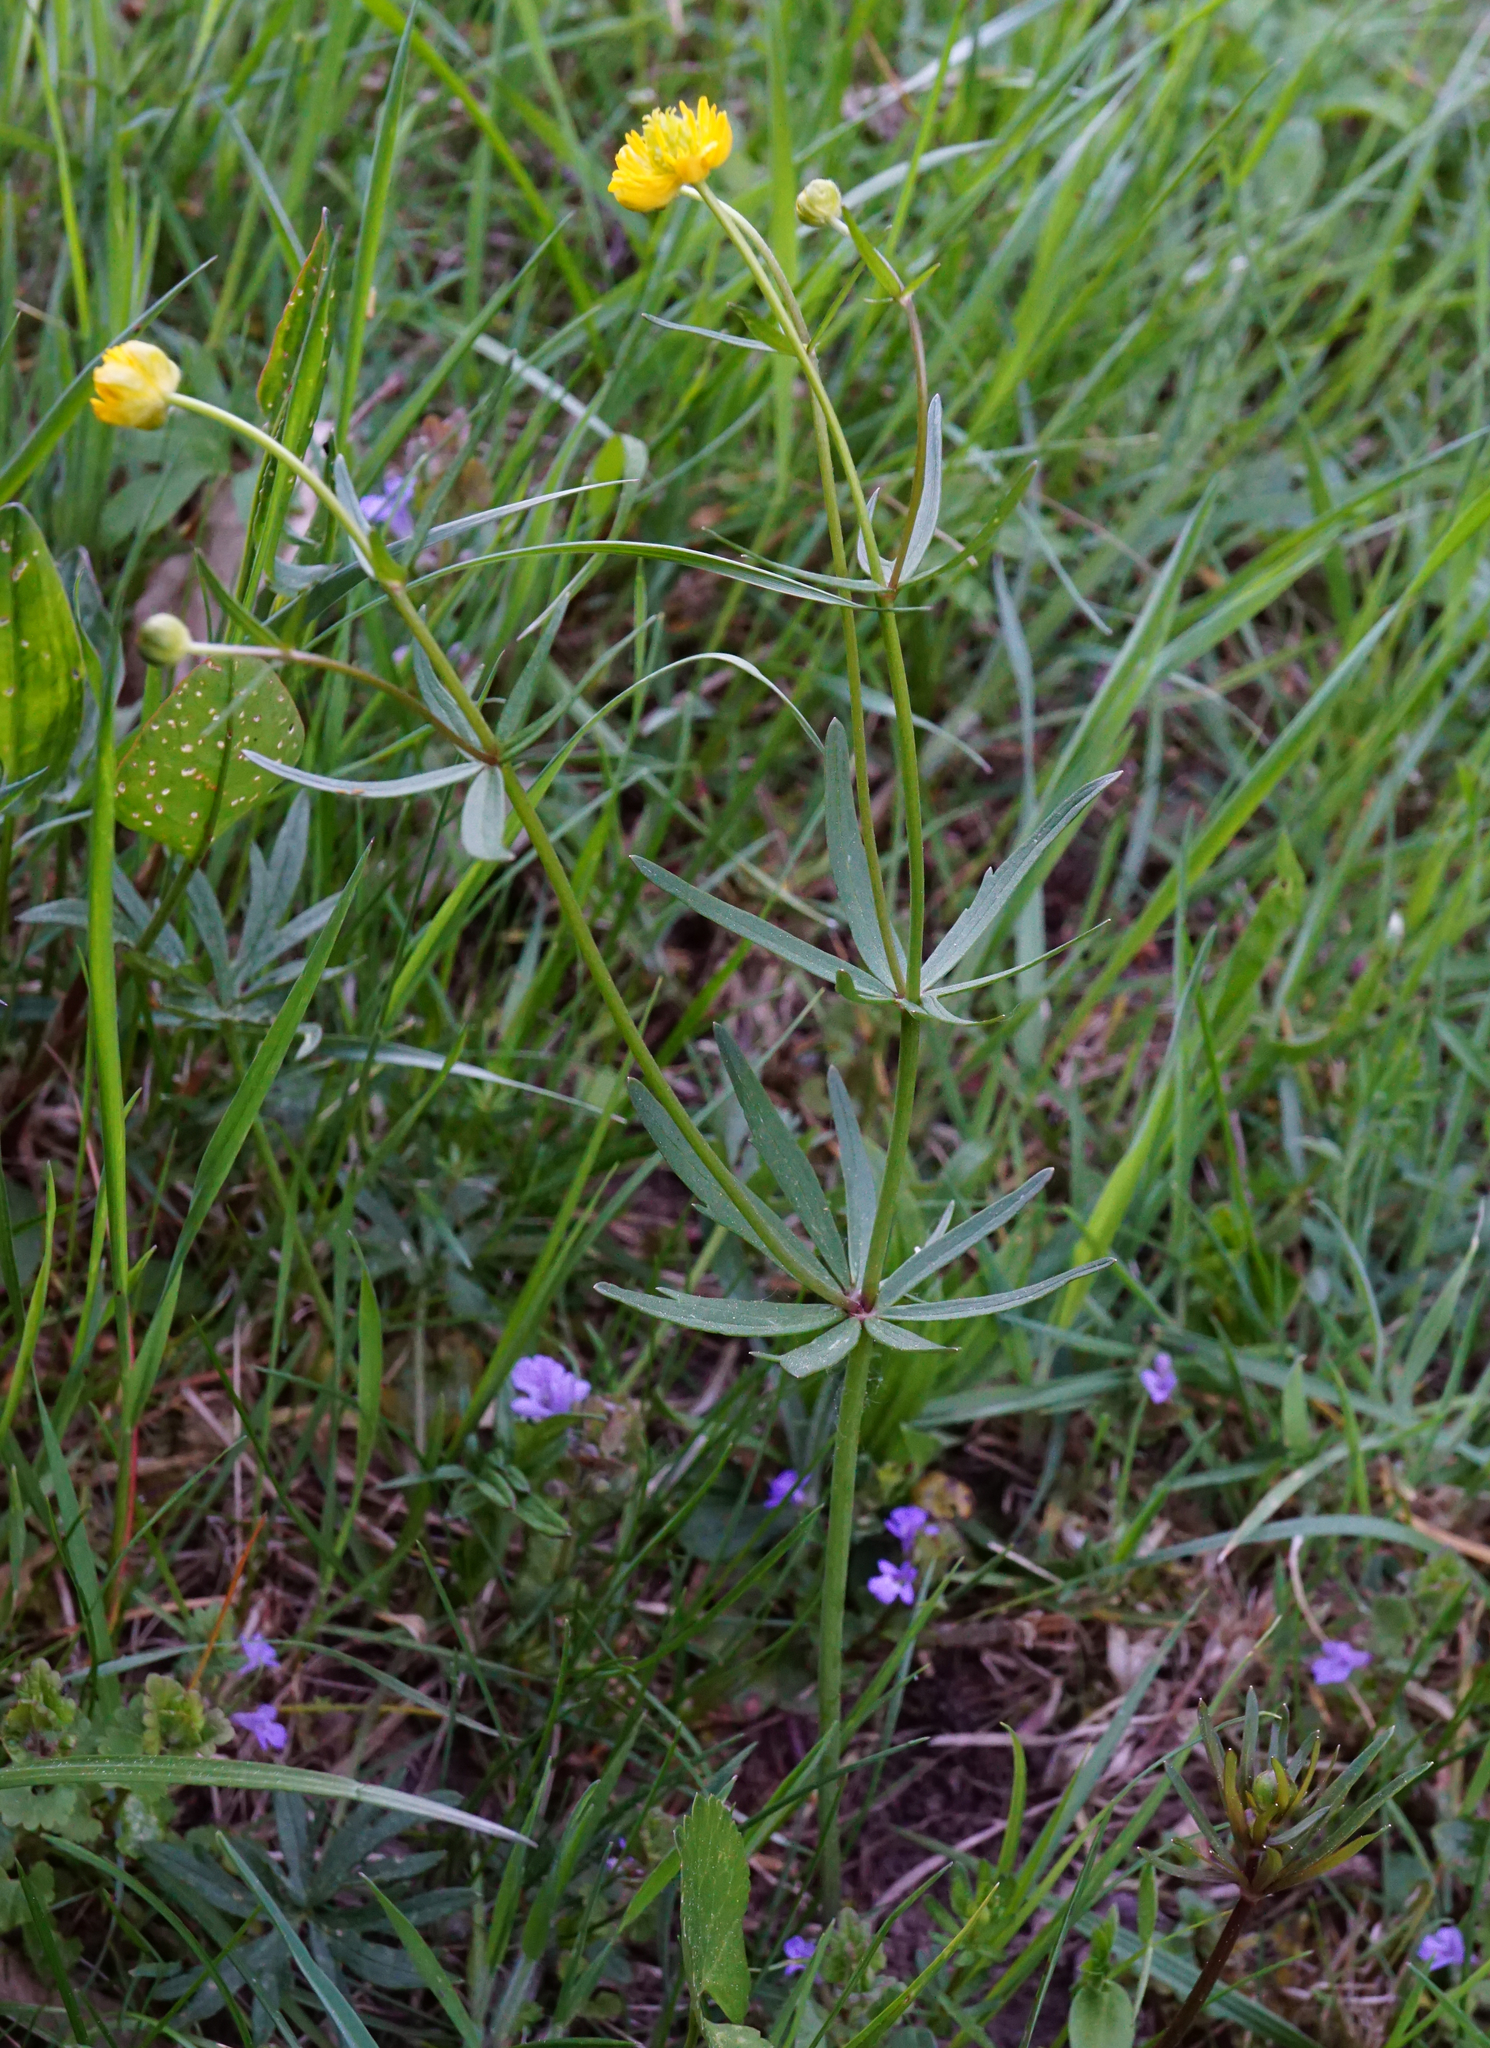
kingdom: Plantae
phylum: Tracheophyta
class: Magnoliopsida
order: Ranunculales
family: Ranunculaceae
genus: Ranunculus
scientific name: Ranunculus auricomus
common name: Goldilocks buttercup
